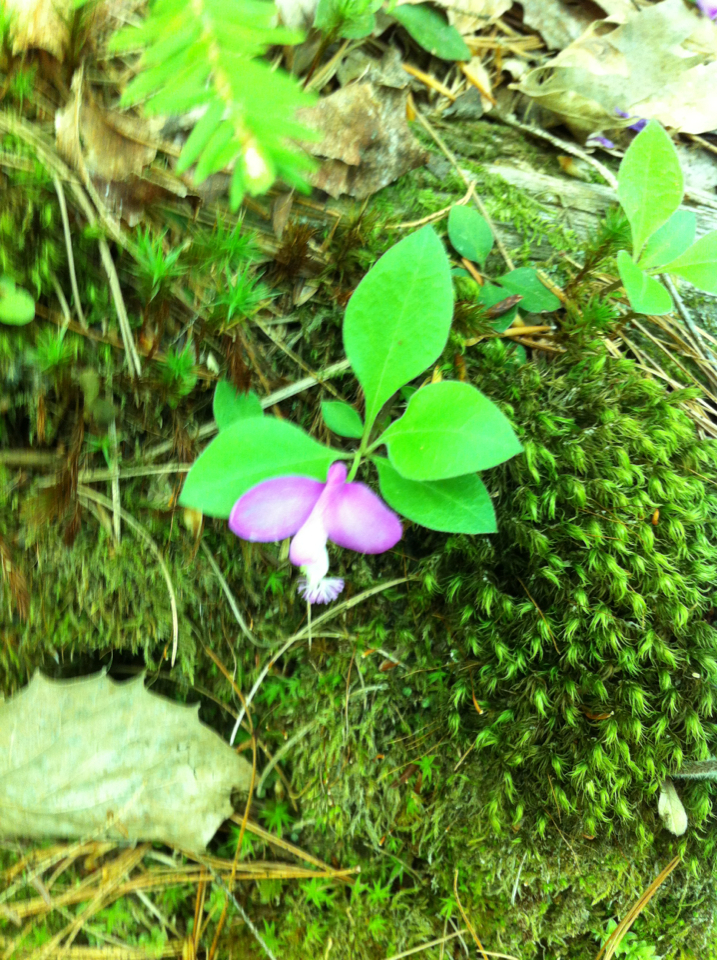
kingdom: Plantae
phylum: Tracheophyta
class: Magnoliopsida
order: Fabales
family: Polygalaceae
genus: Polygaloides
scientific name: Polygaloides paucifolia
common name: Bird-on-the-wing
